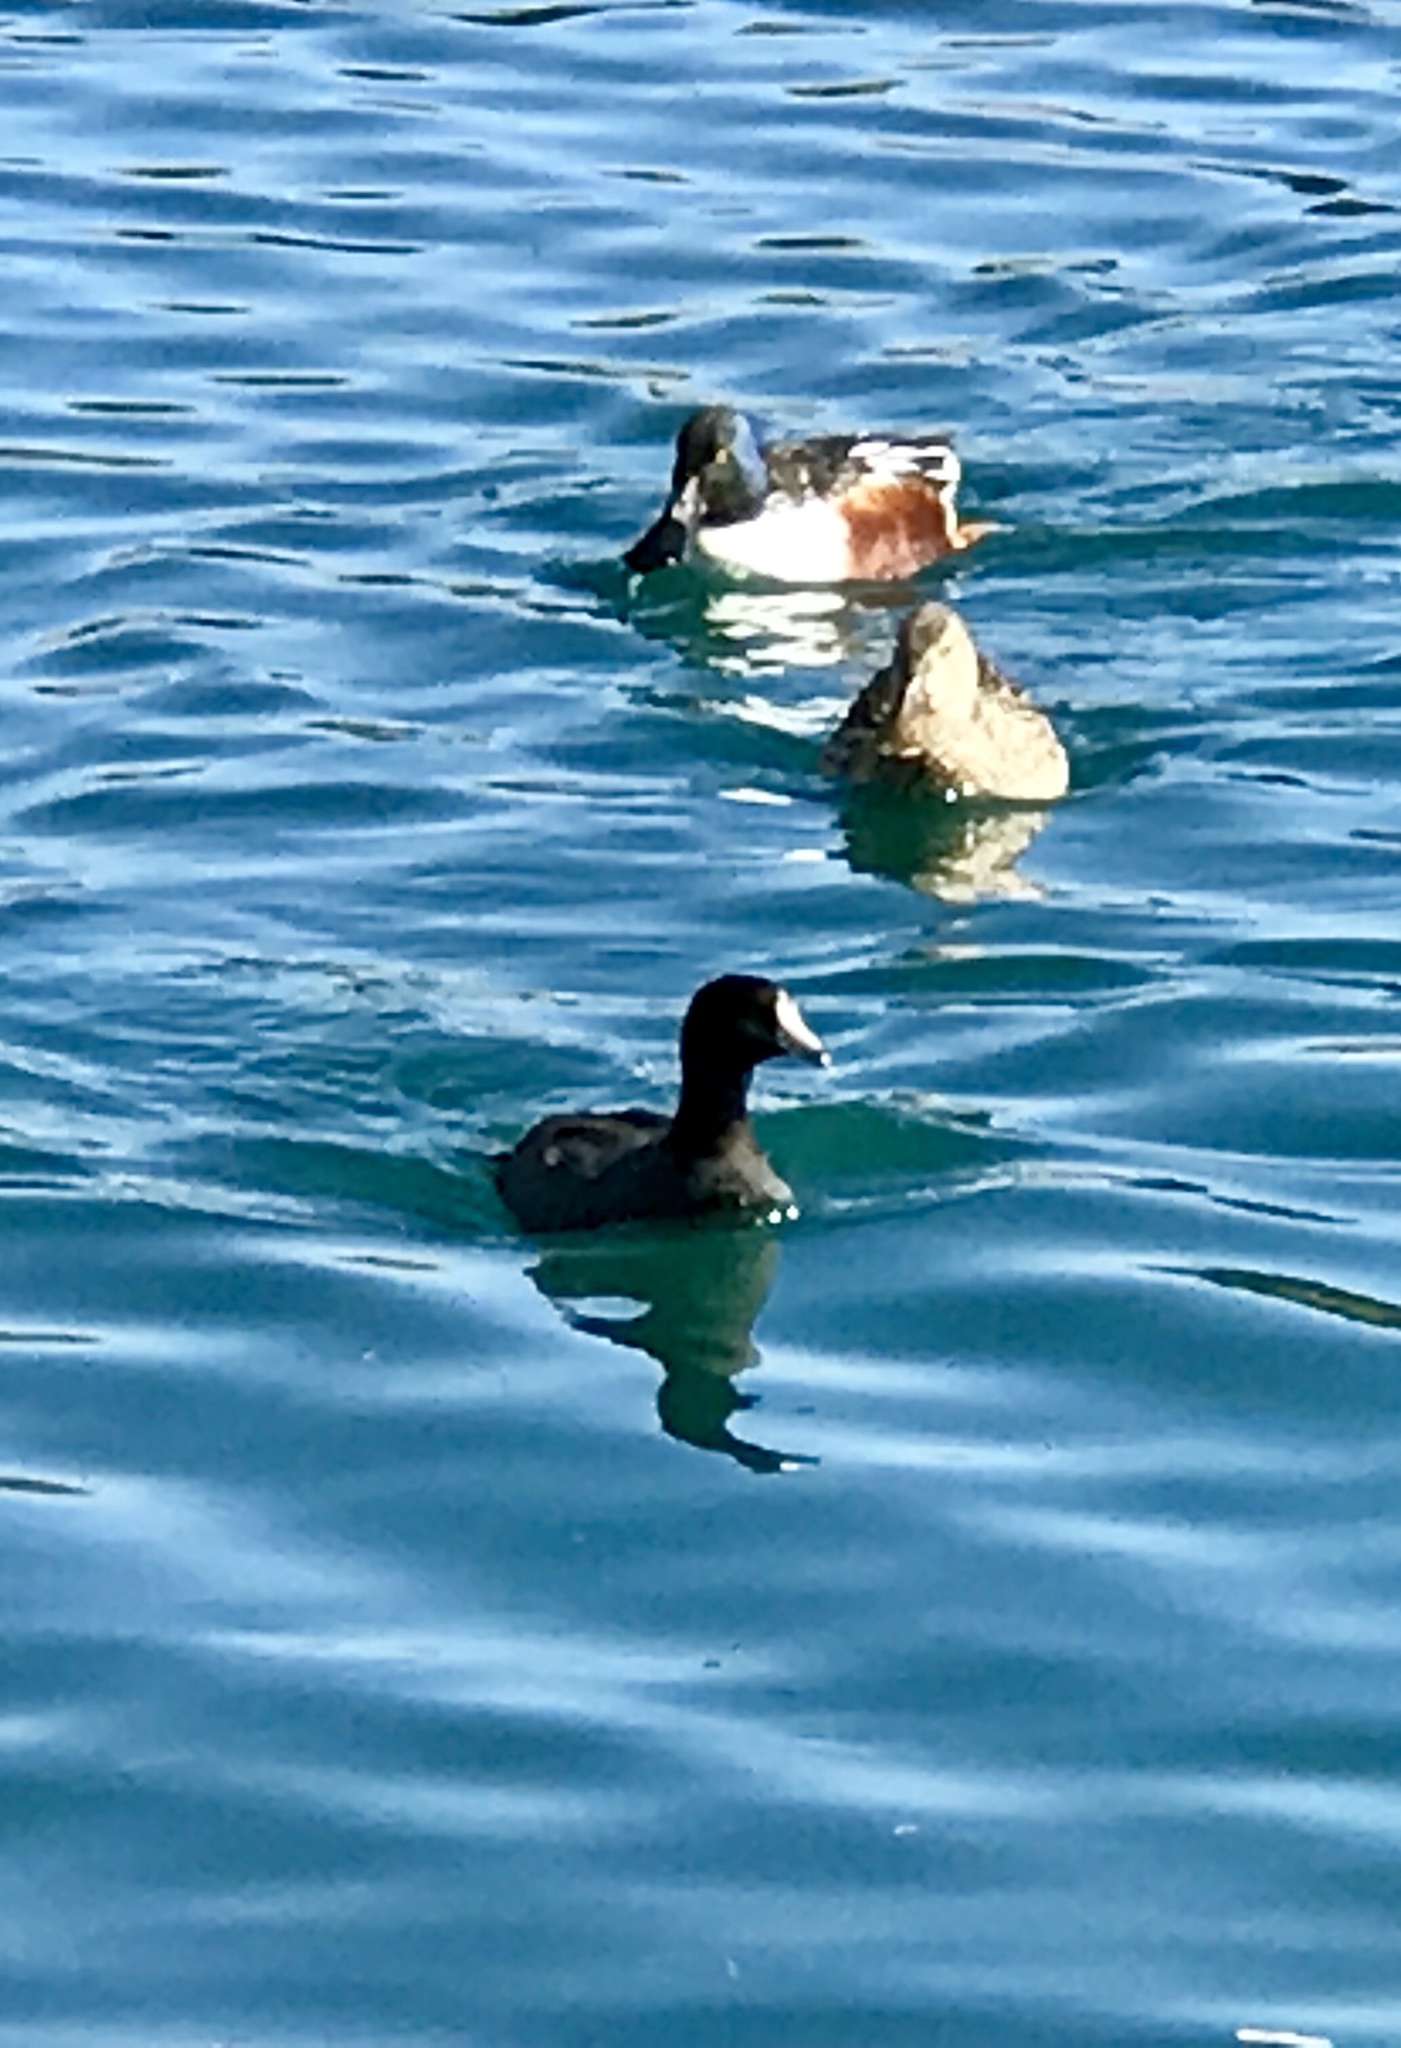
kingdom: Animalia
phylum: Chordata
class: Aves
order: Gruiformes
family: Rallidae
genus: Fulica
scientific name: Fulica americana
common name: American coot
